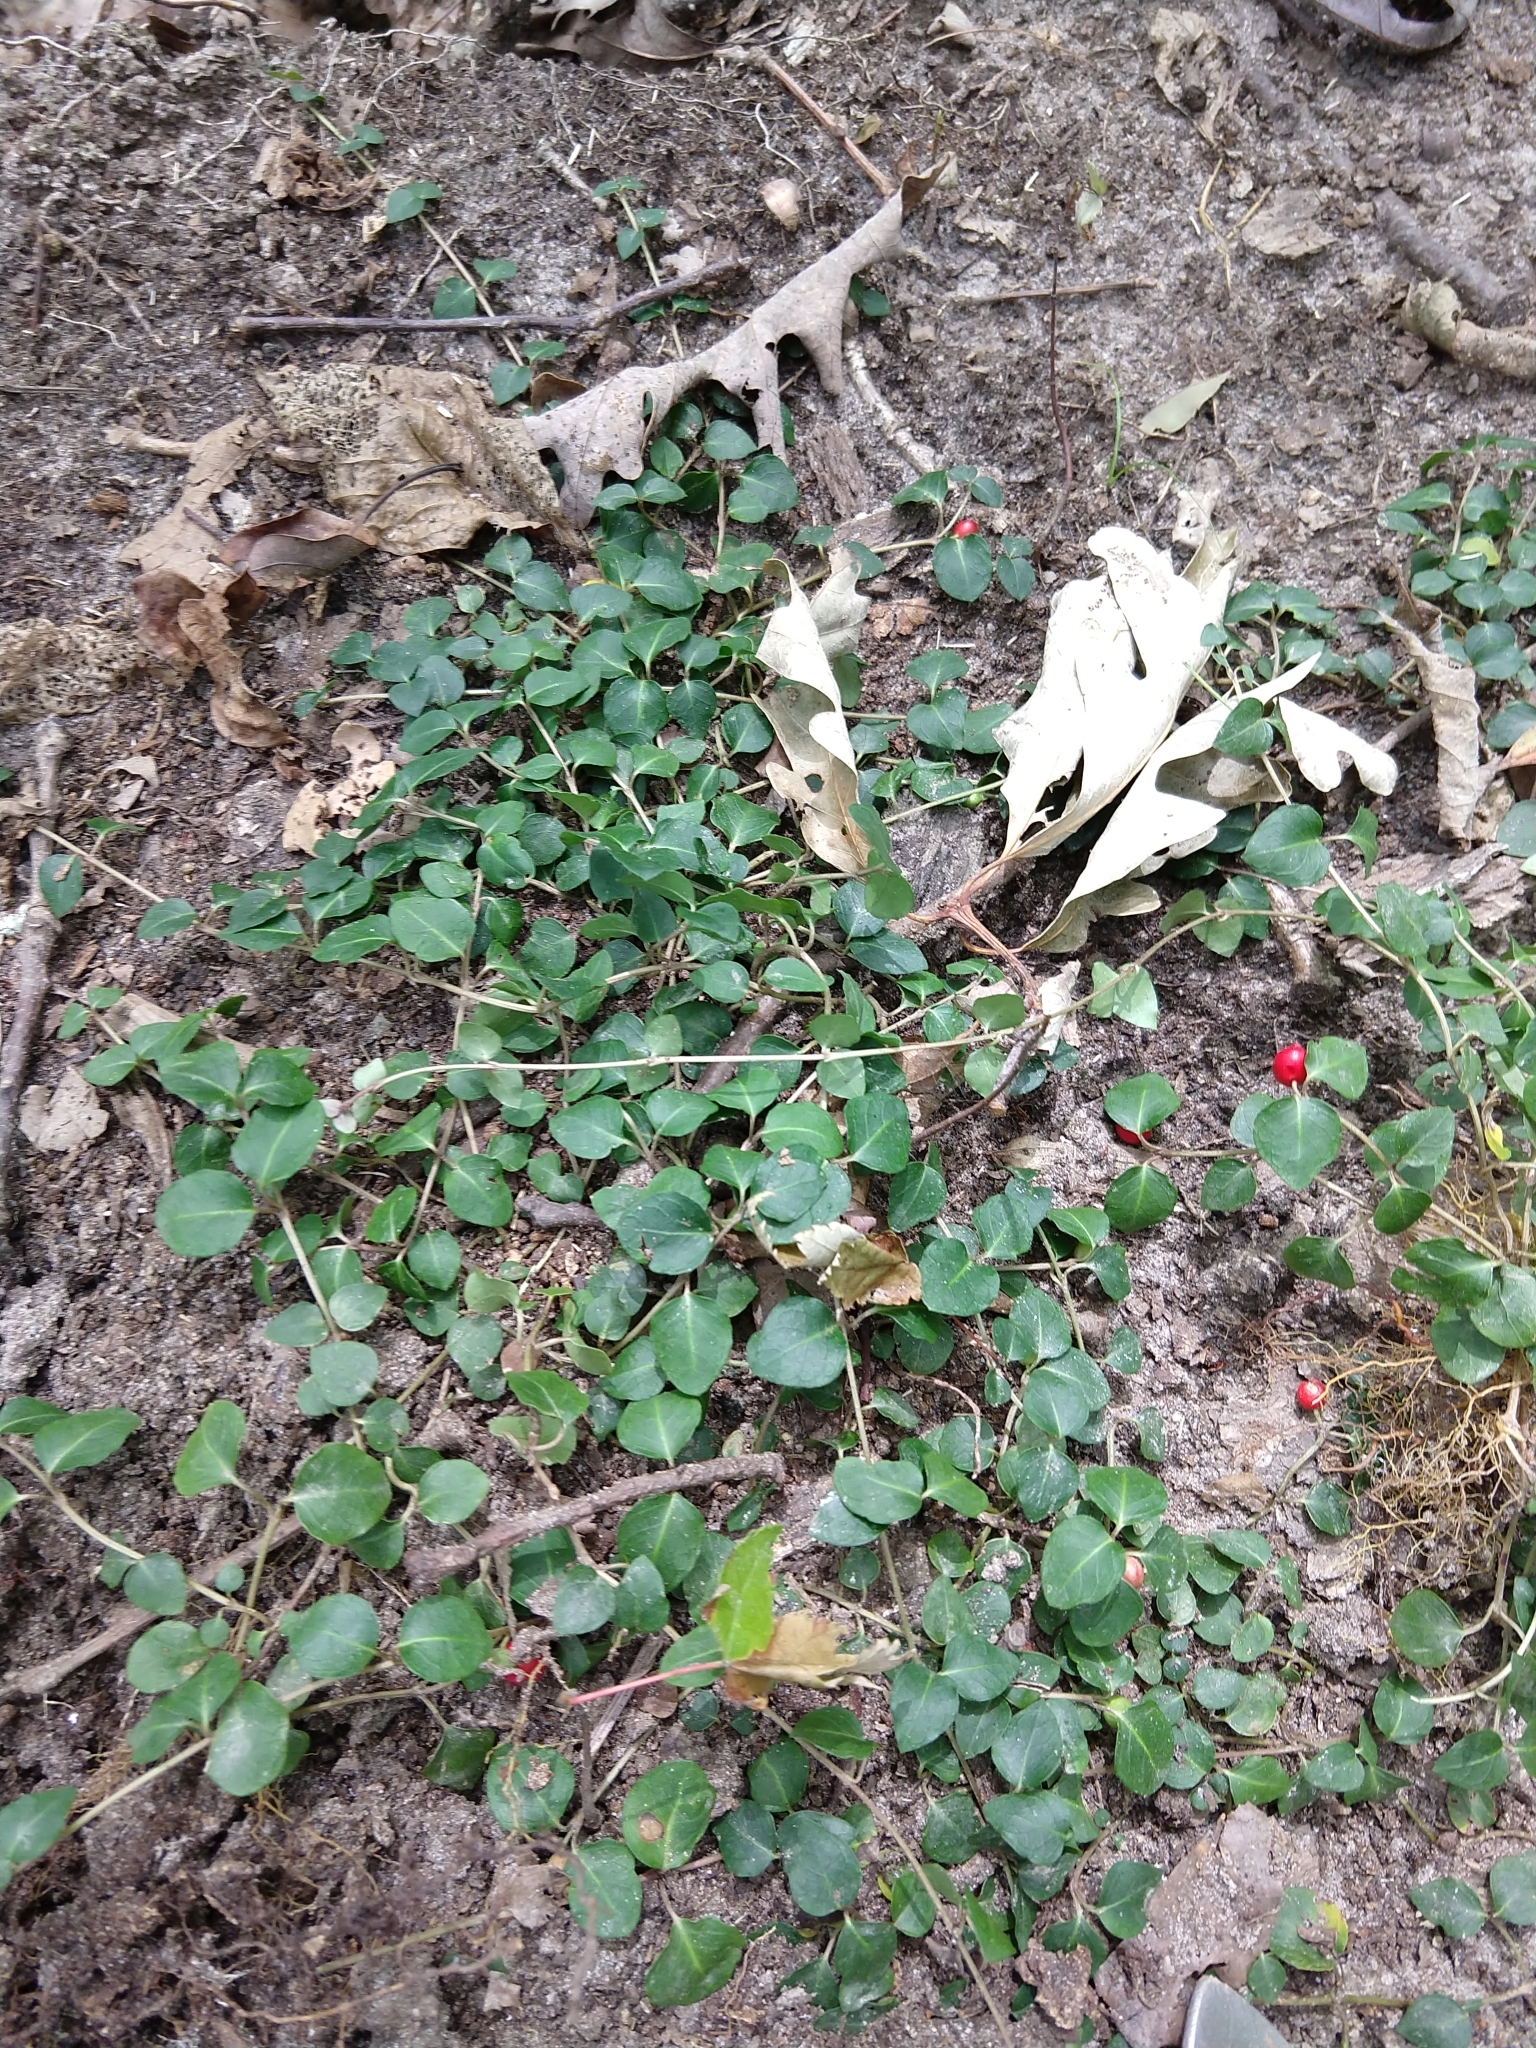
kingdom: Plantae
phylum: Tracheophyta
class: Magnoliopsida
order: Gentianales
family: Rubiaceae
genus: Mitchella
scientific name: Mitchella repens
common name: Partridge-berry
